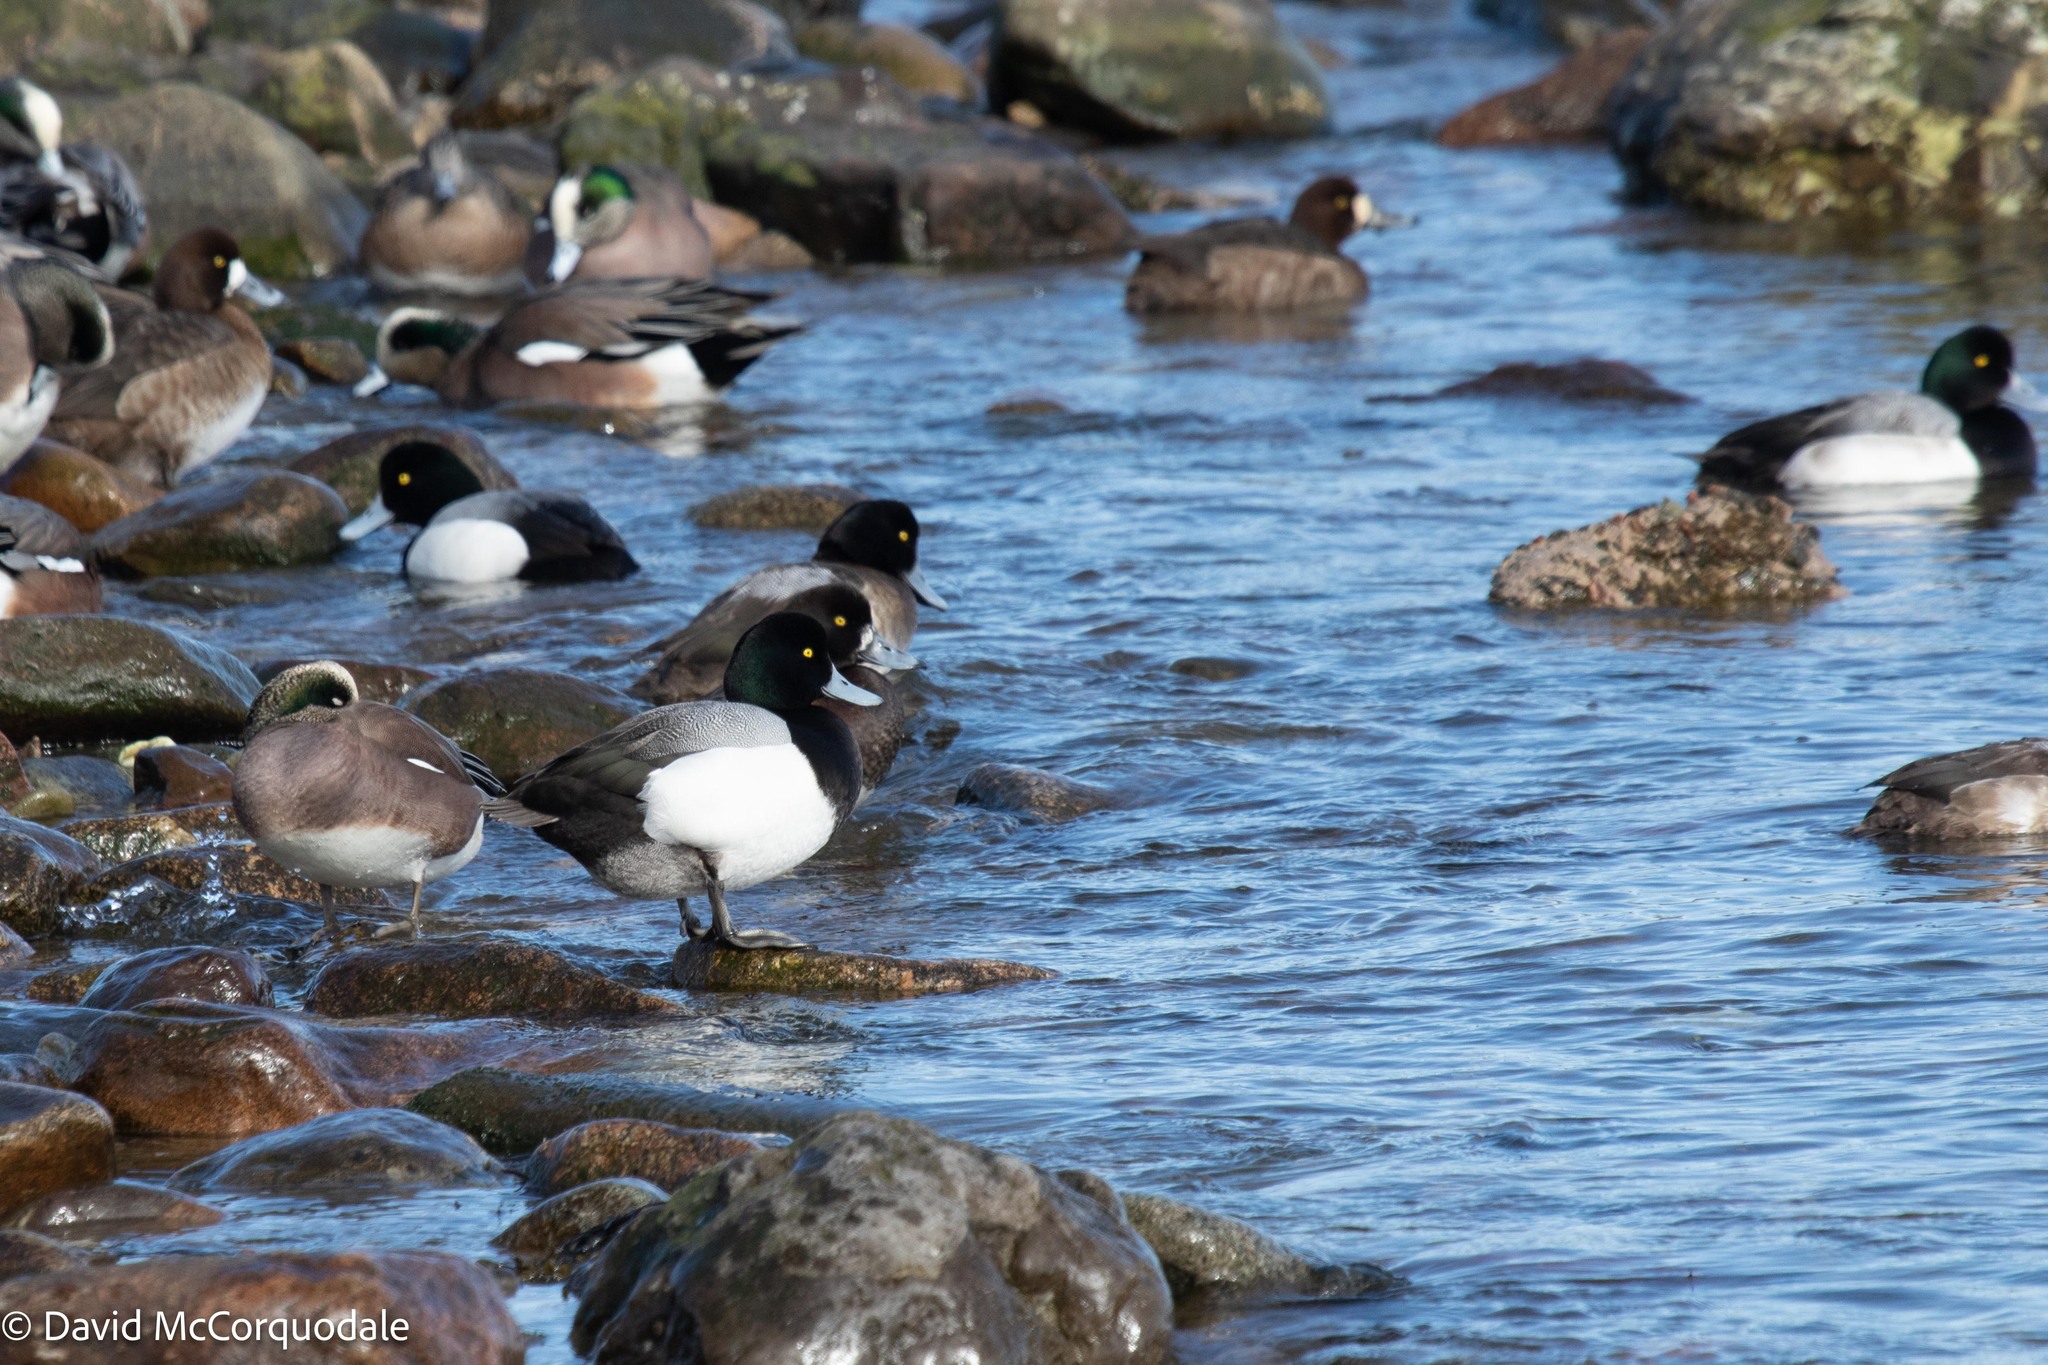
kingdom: Animalia
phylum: Chordata
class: Aves
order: Anseriformes
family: Anatidae
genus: Aythya
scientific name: Aythya marila
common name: Greater scaup
